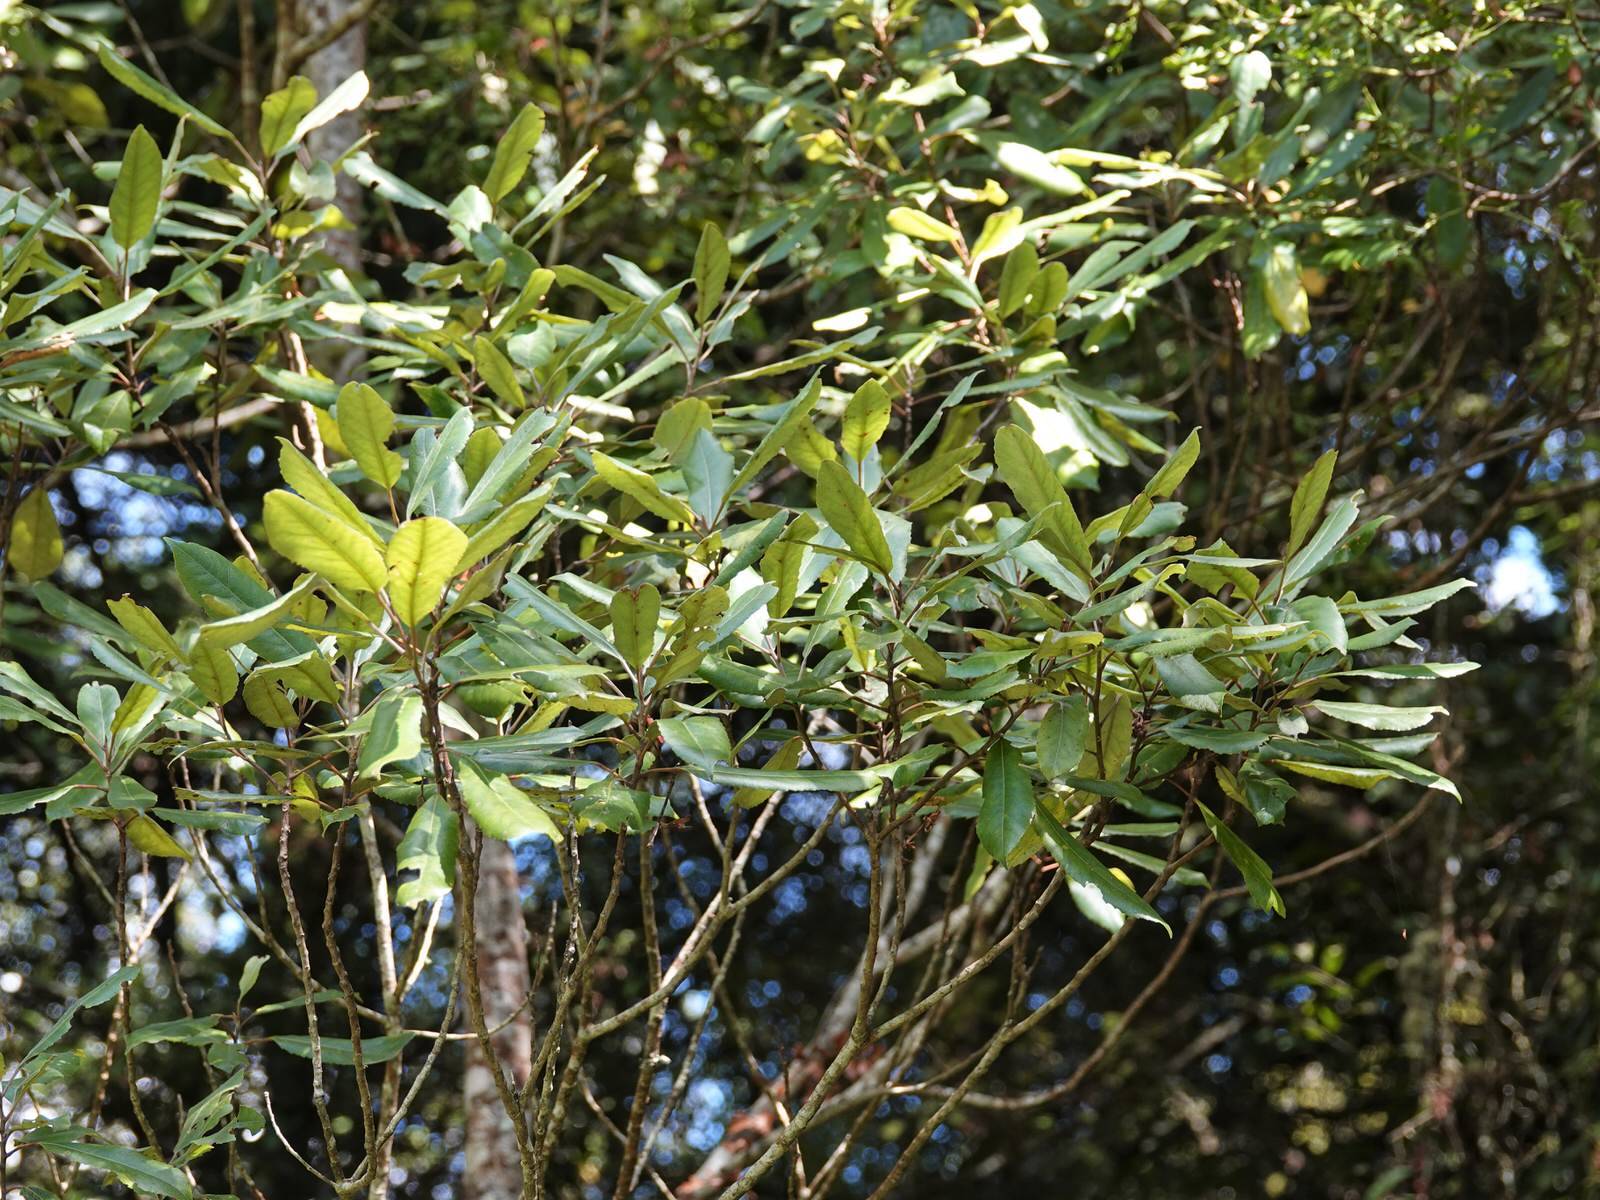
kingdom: Plantae
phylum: Tracheophyta
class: Magnoliopsida
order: Oxalidales
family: Elaeocarpaceae
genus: Elaeocarpus
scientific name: Elaeocarpus dentatus
